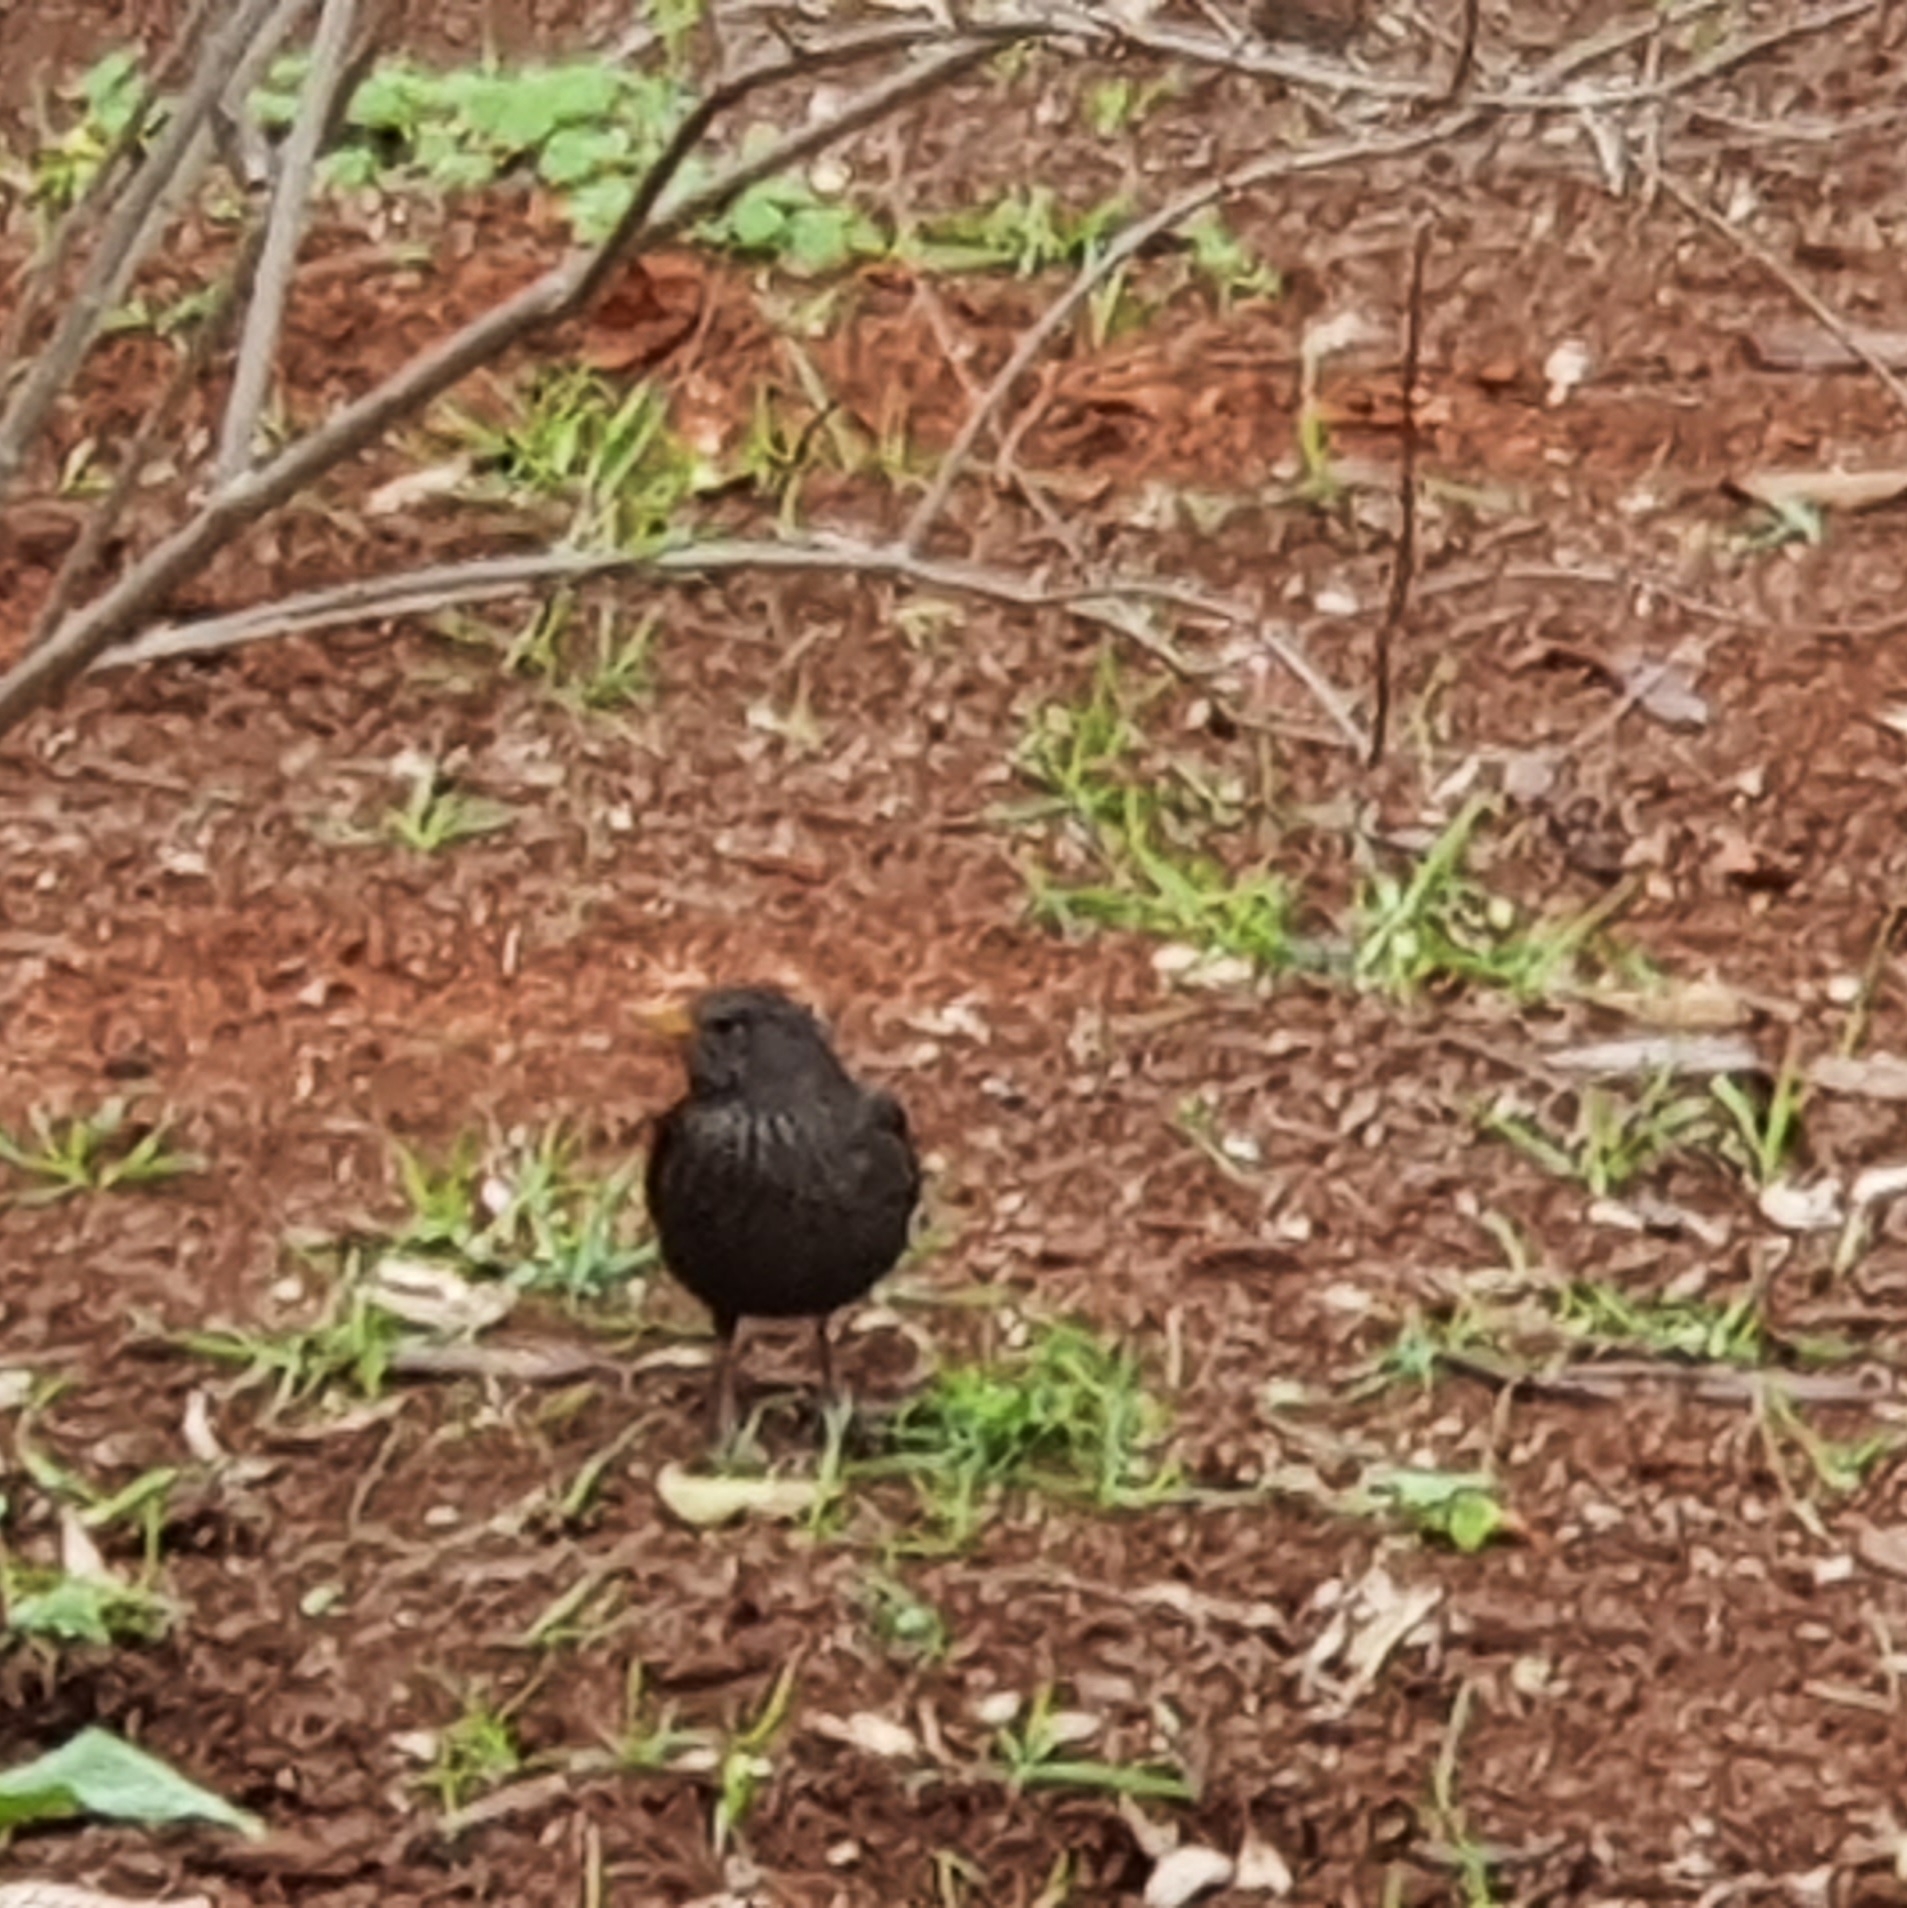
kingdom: Animalia
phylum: Chordata
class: Aves
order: Passeriformes
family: Turdidae
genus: Turdus
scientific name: Turdus merula
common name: Common blackbird
